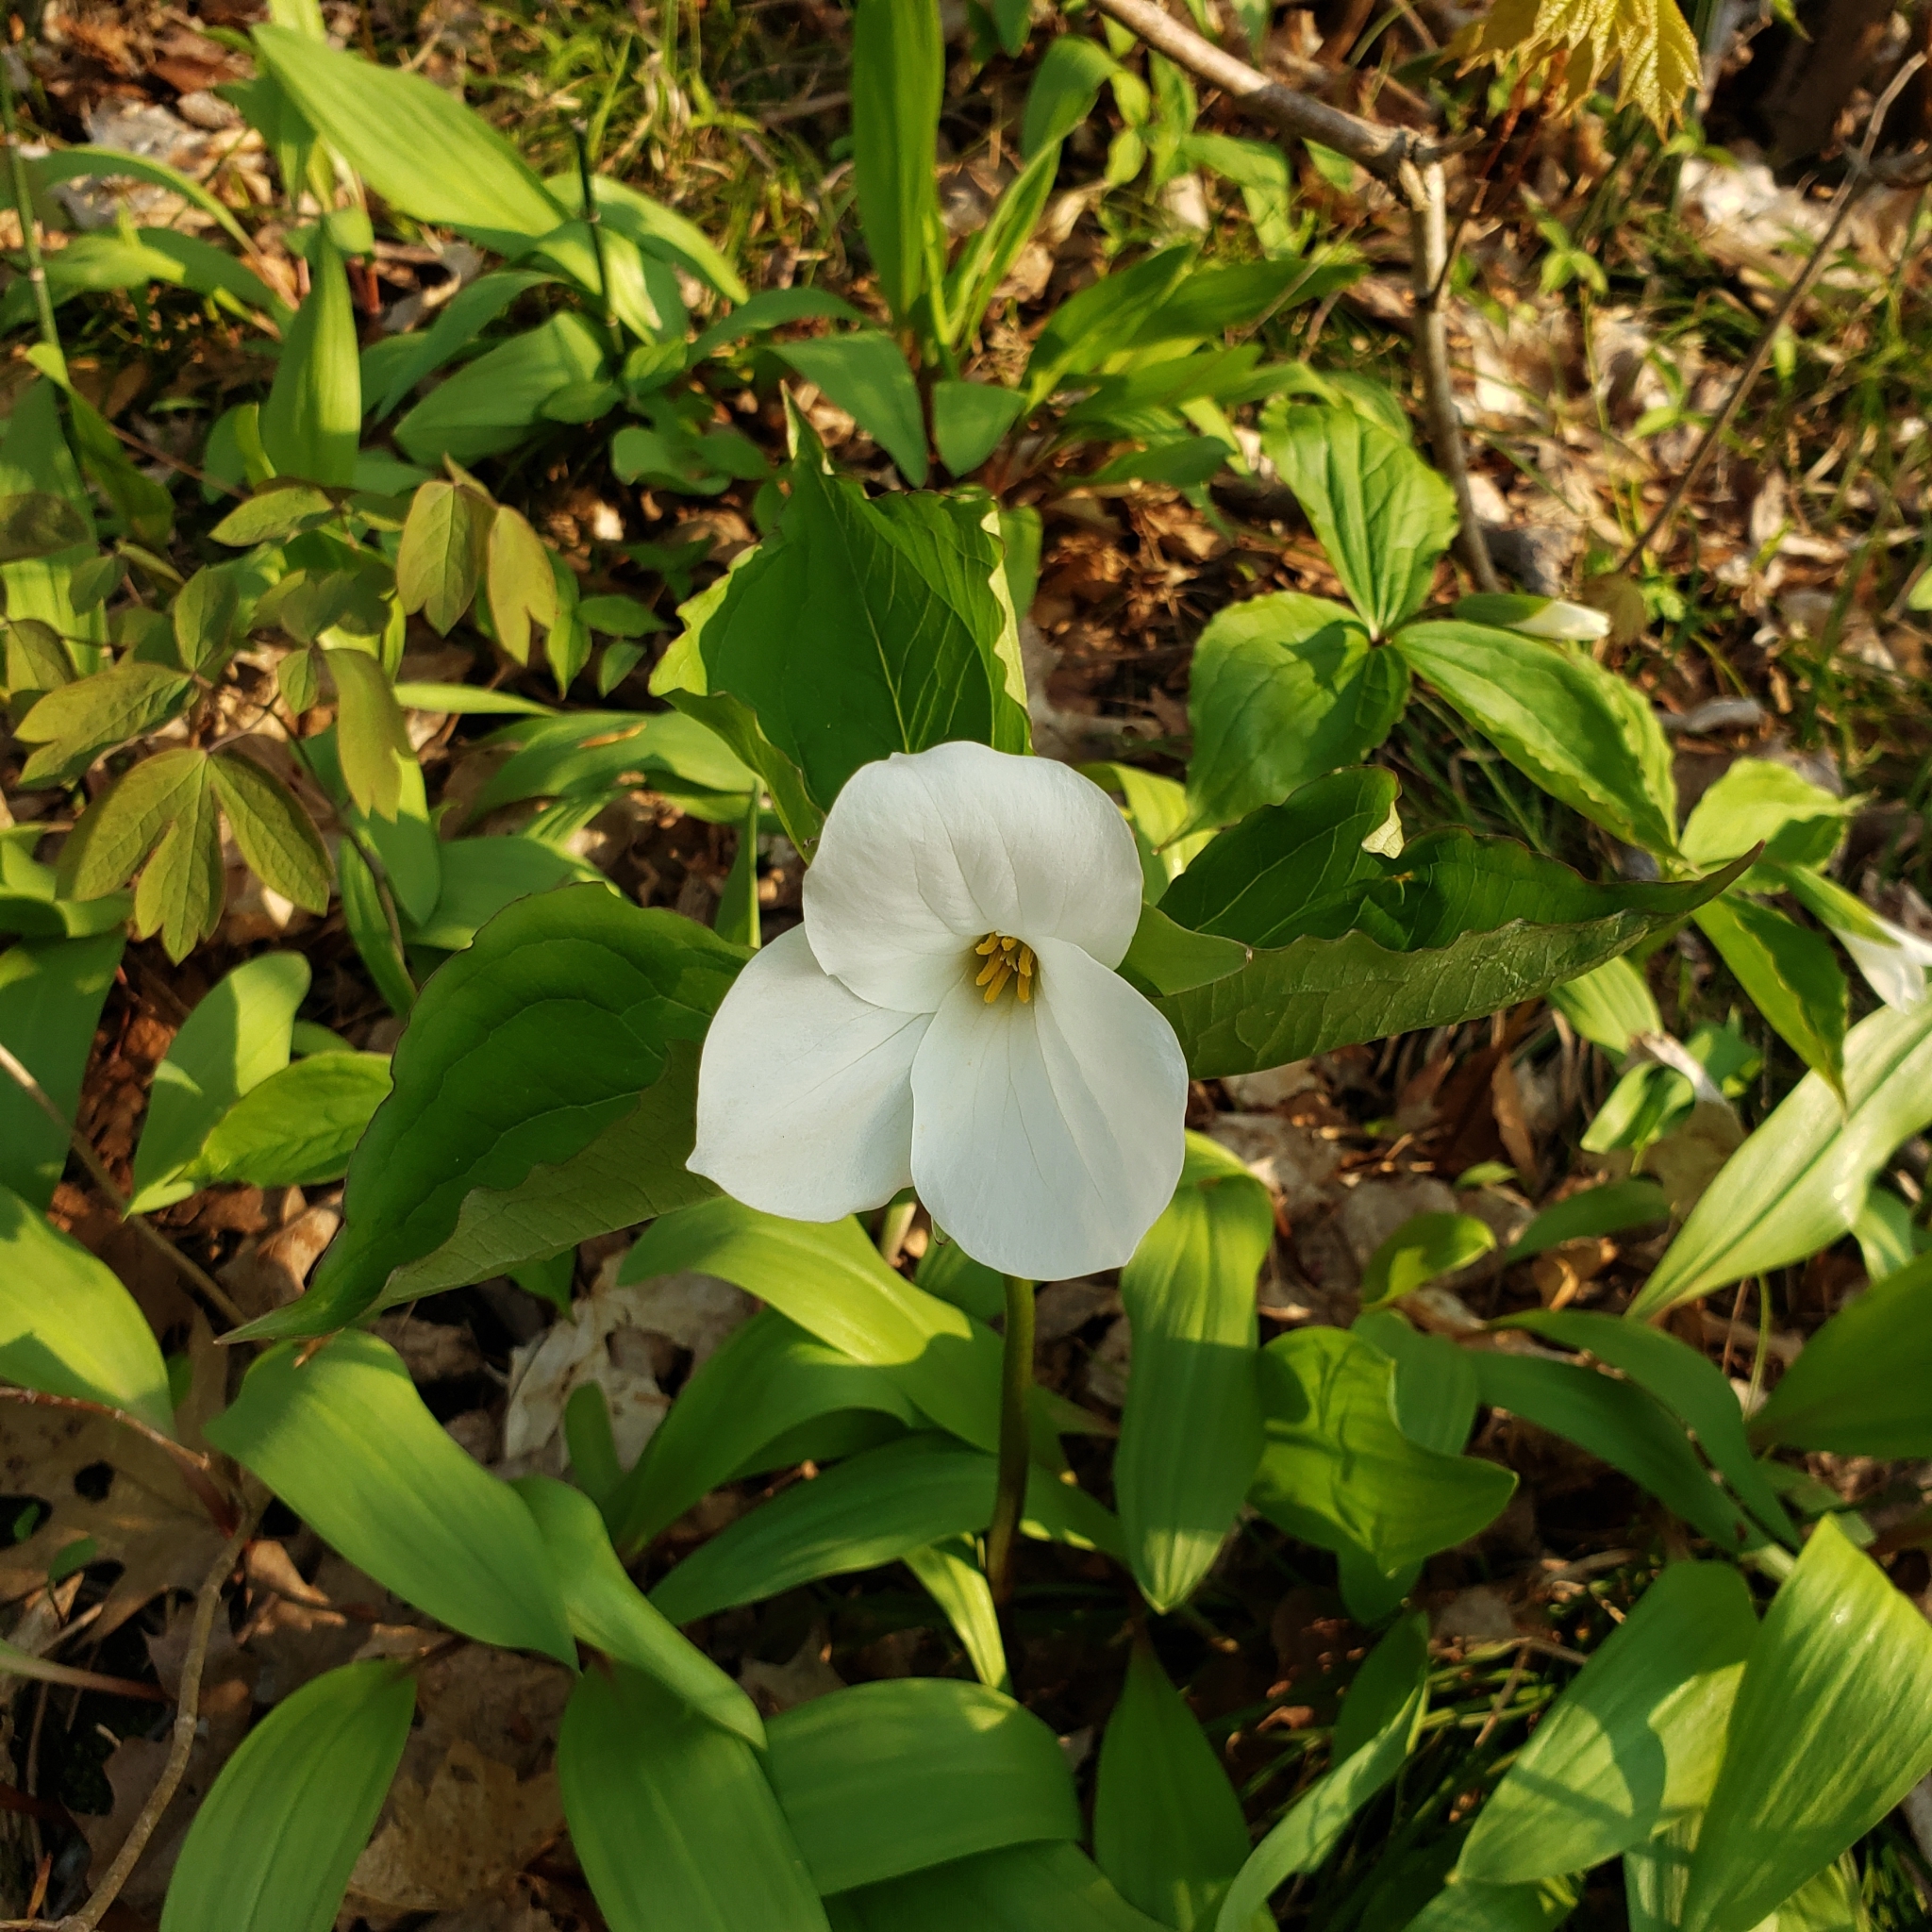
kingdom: Plantae
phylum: Tracheophyta
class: Liliopsida
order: Liliales
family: Melanthiaceae
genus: Trillium
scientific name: Trillium grandiflorum
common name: Great white trillium
